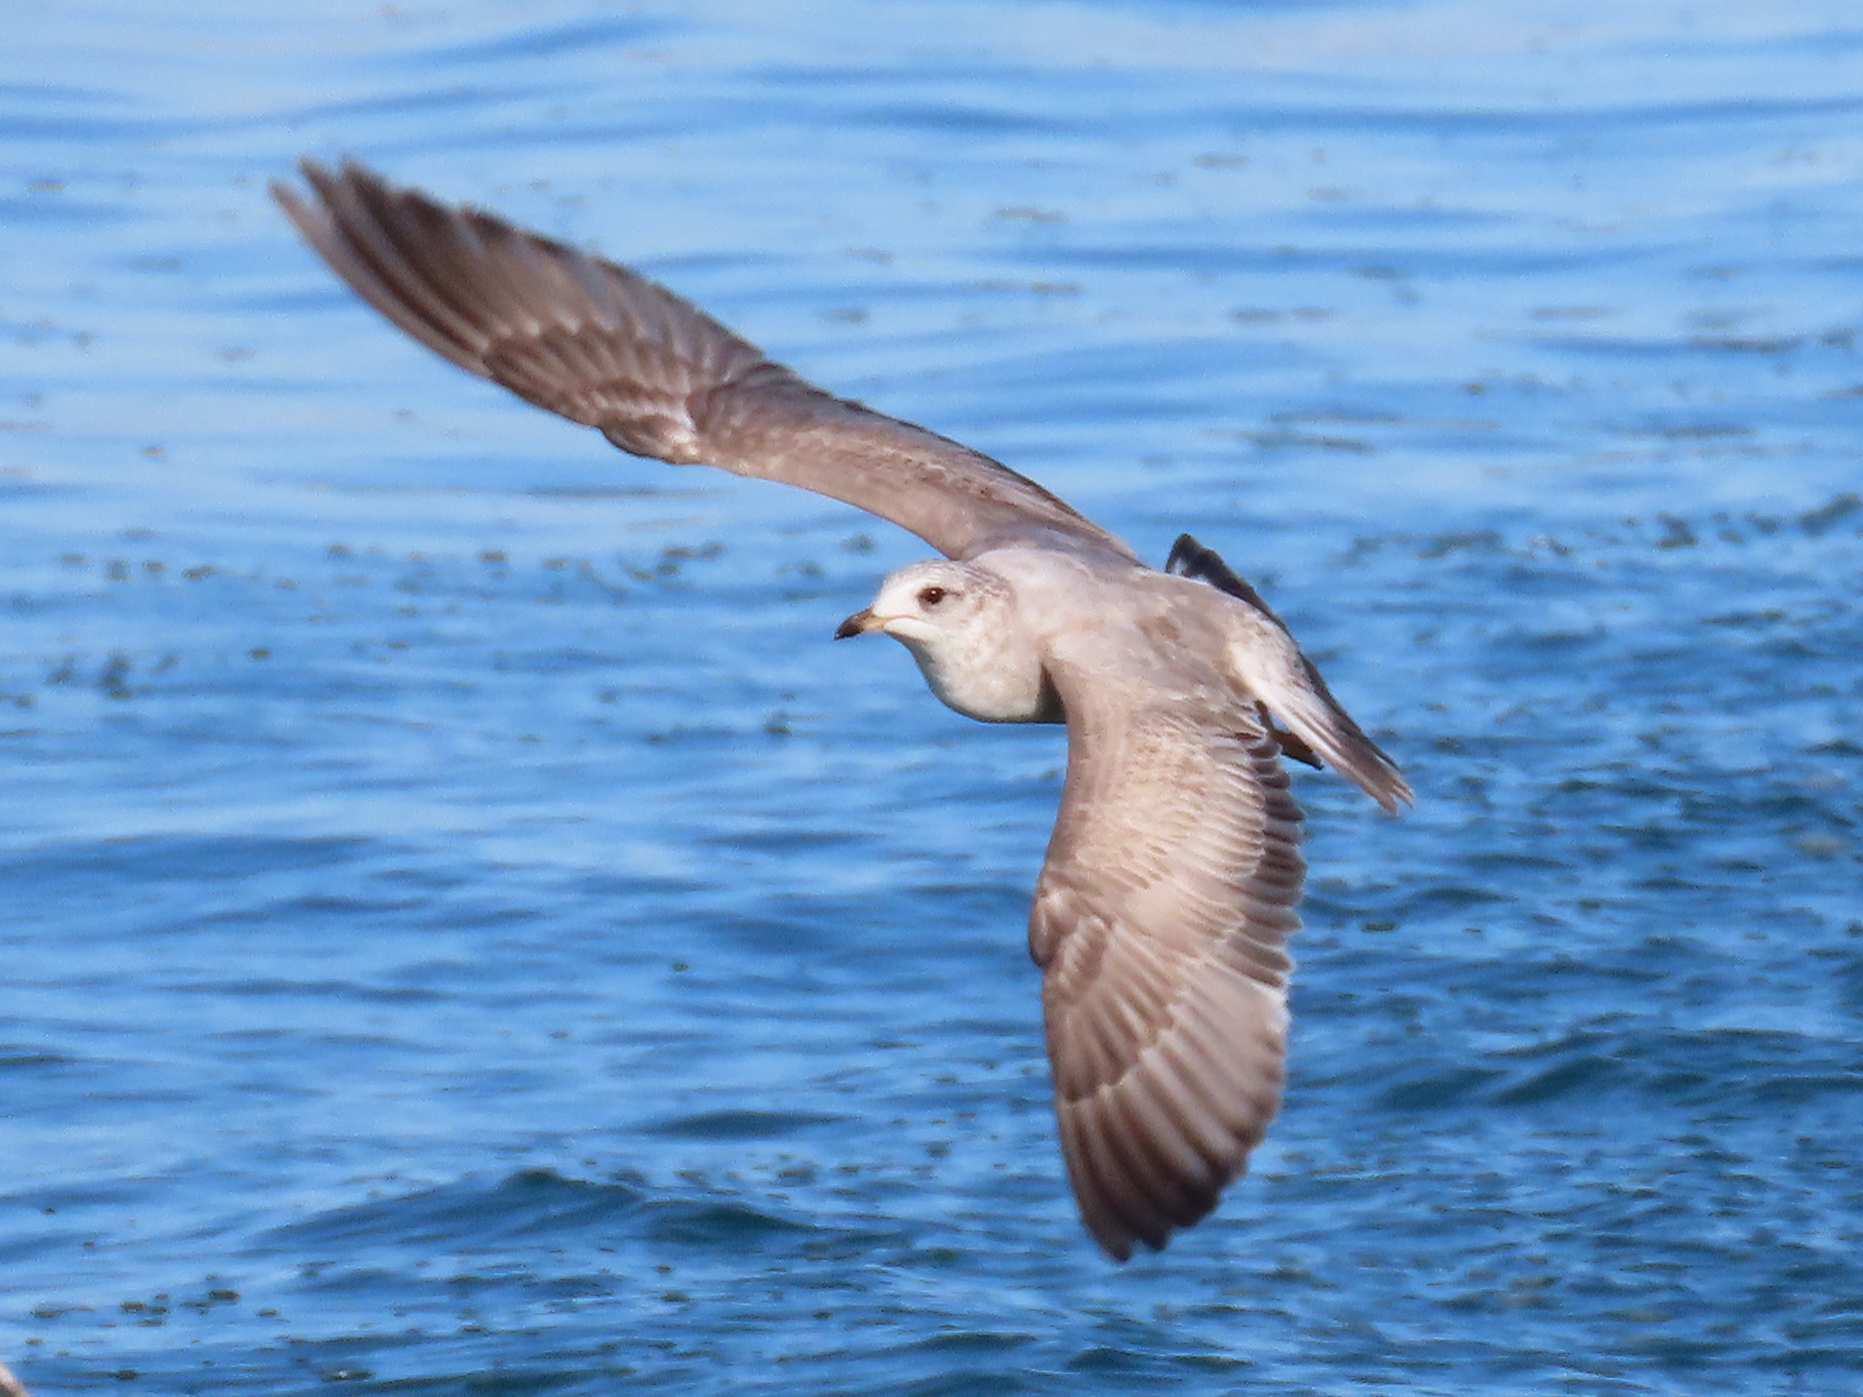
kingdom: Animalia
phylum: Chordata
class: Aves
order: Charadriiformes
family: Laridae
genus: Larus
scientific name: Larus brachyrhynchus
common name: Short-billed gull
